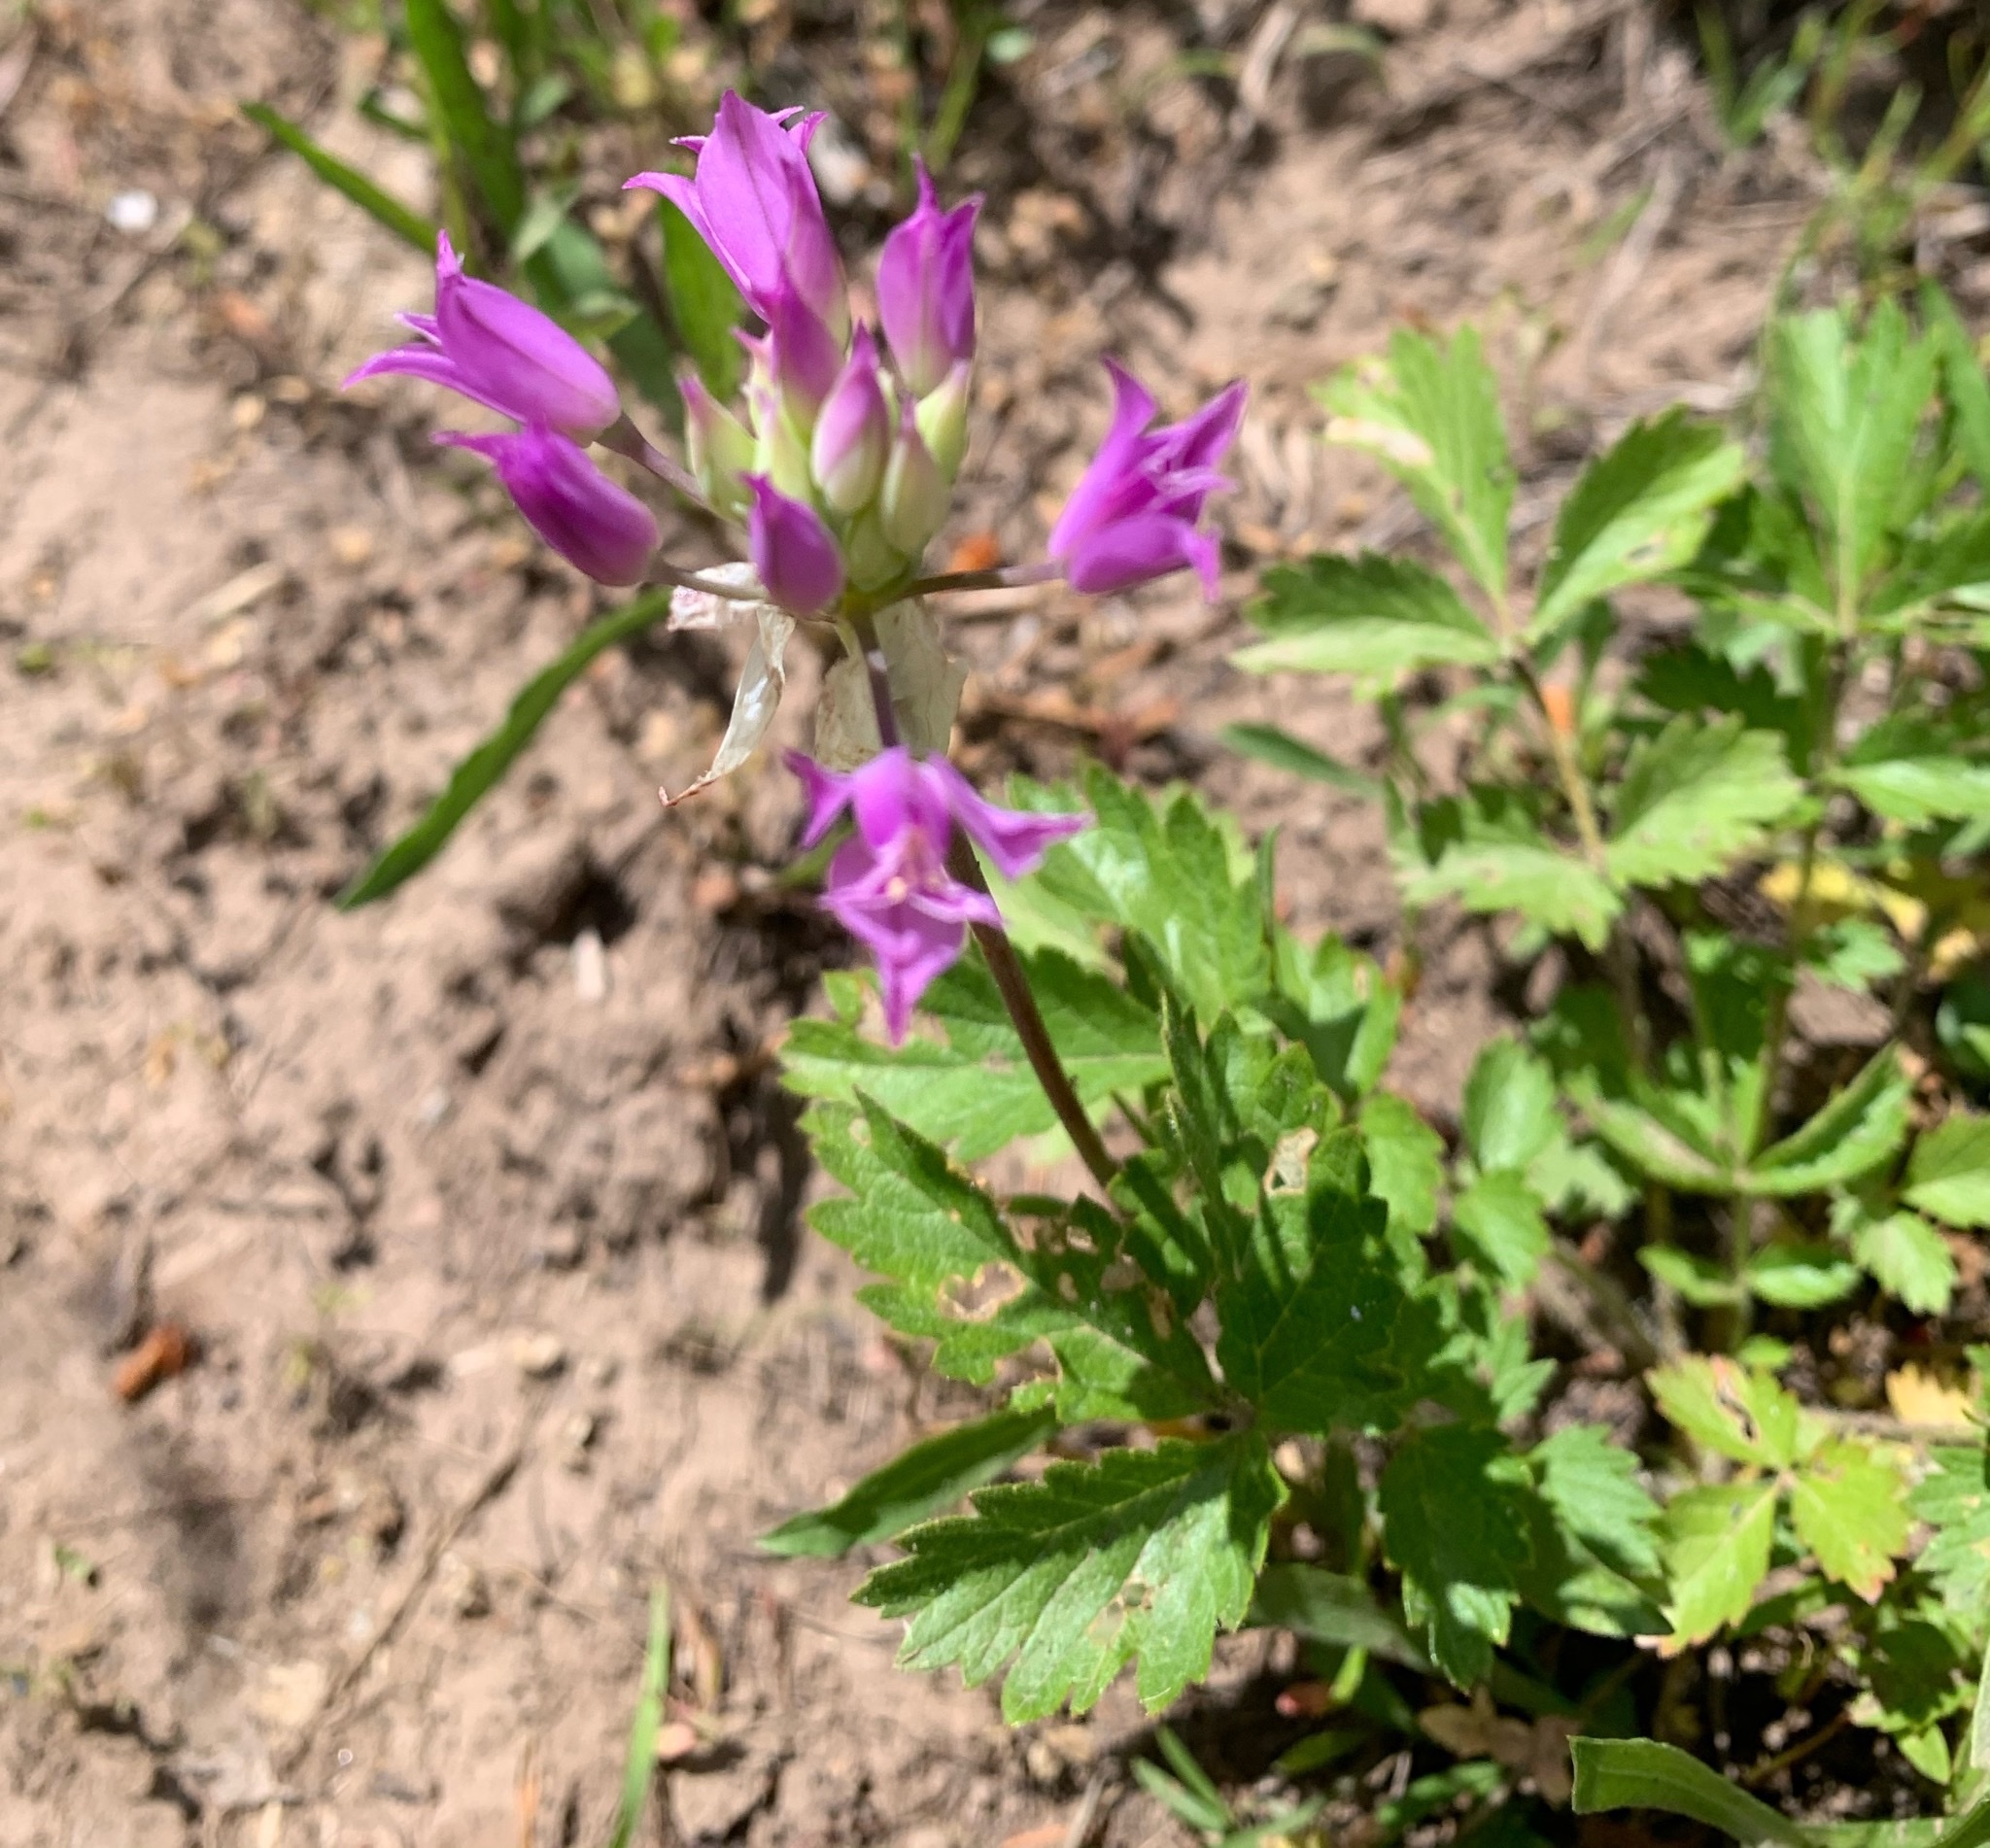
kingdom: Plantae
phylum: Tracheophyta
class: Liliopsida
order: Asparagales
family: Amaryllidaceae
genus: Allium
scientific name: Allium acuminatum
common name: Hooker's onion
